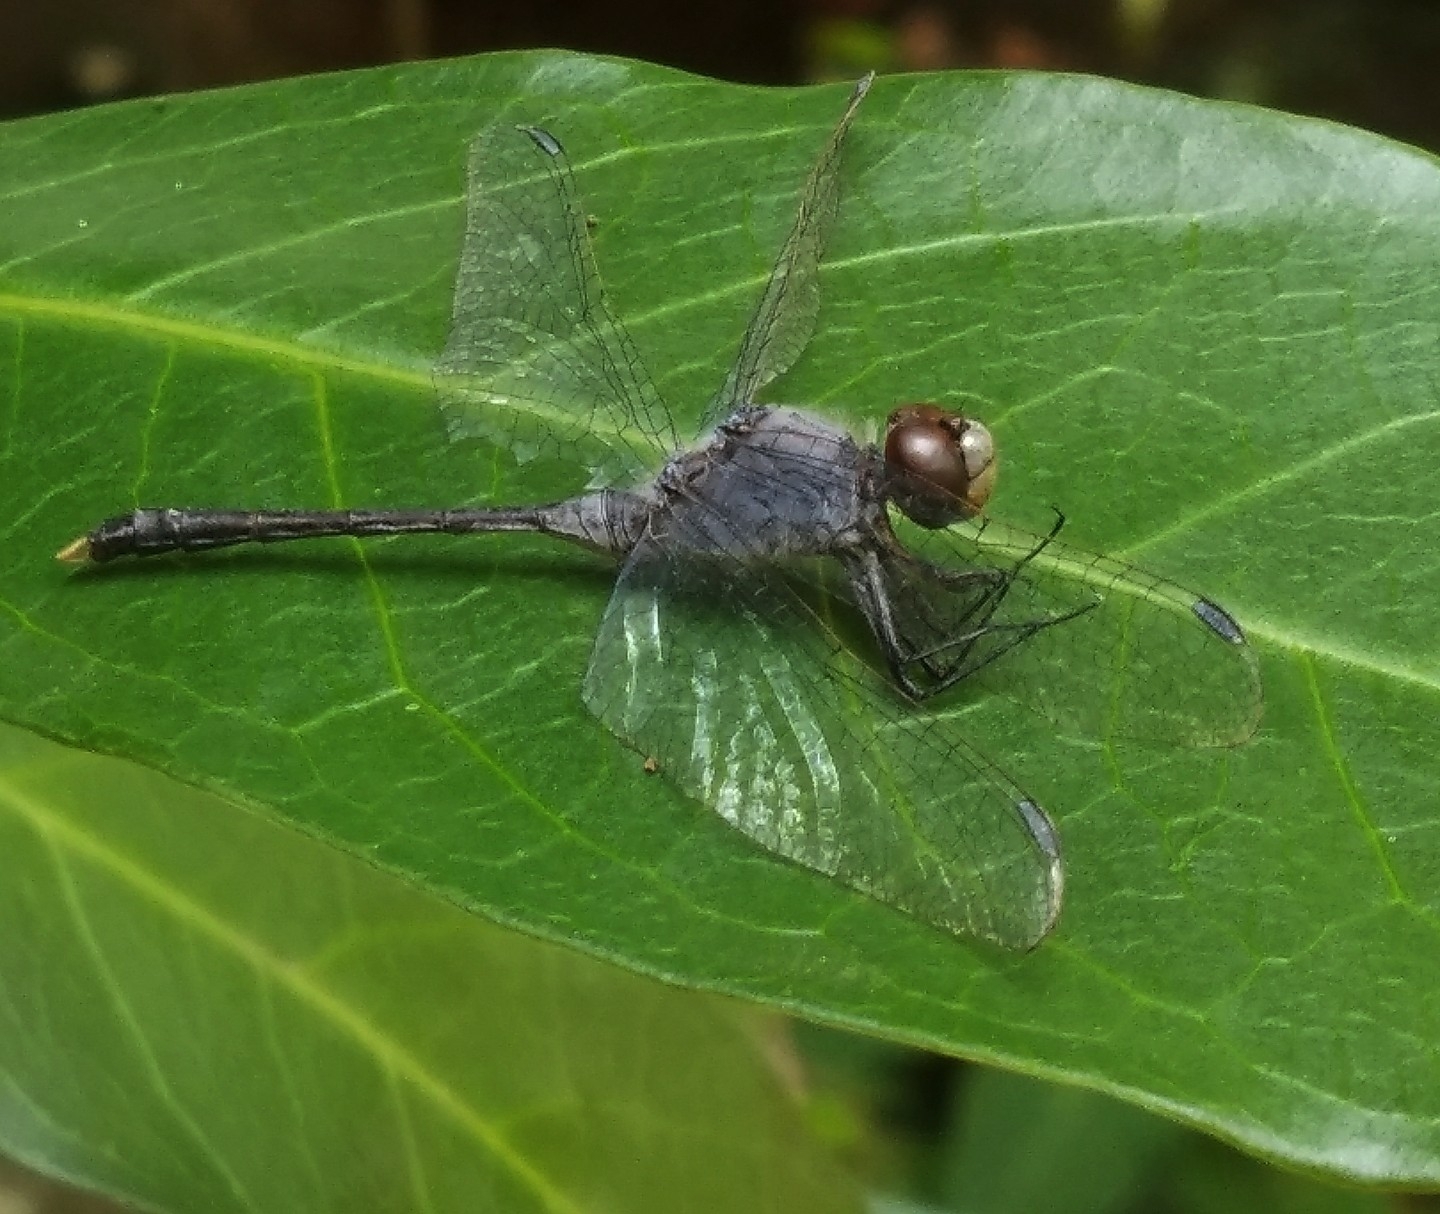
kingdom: Animalia
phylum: Arthropoda
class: Insecta
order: Odonata
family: Libellulidae
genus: Diplacodes
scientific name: Diplacodes trivialis
